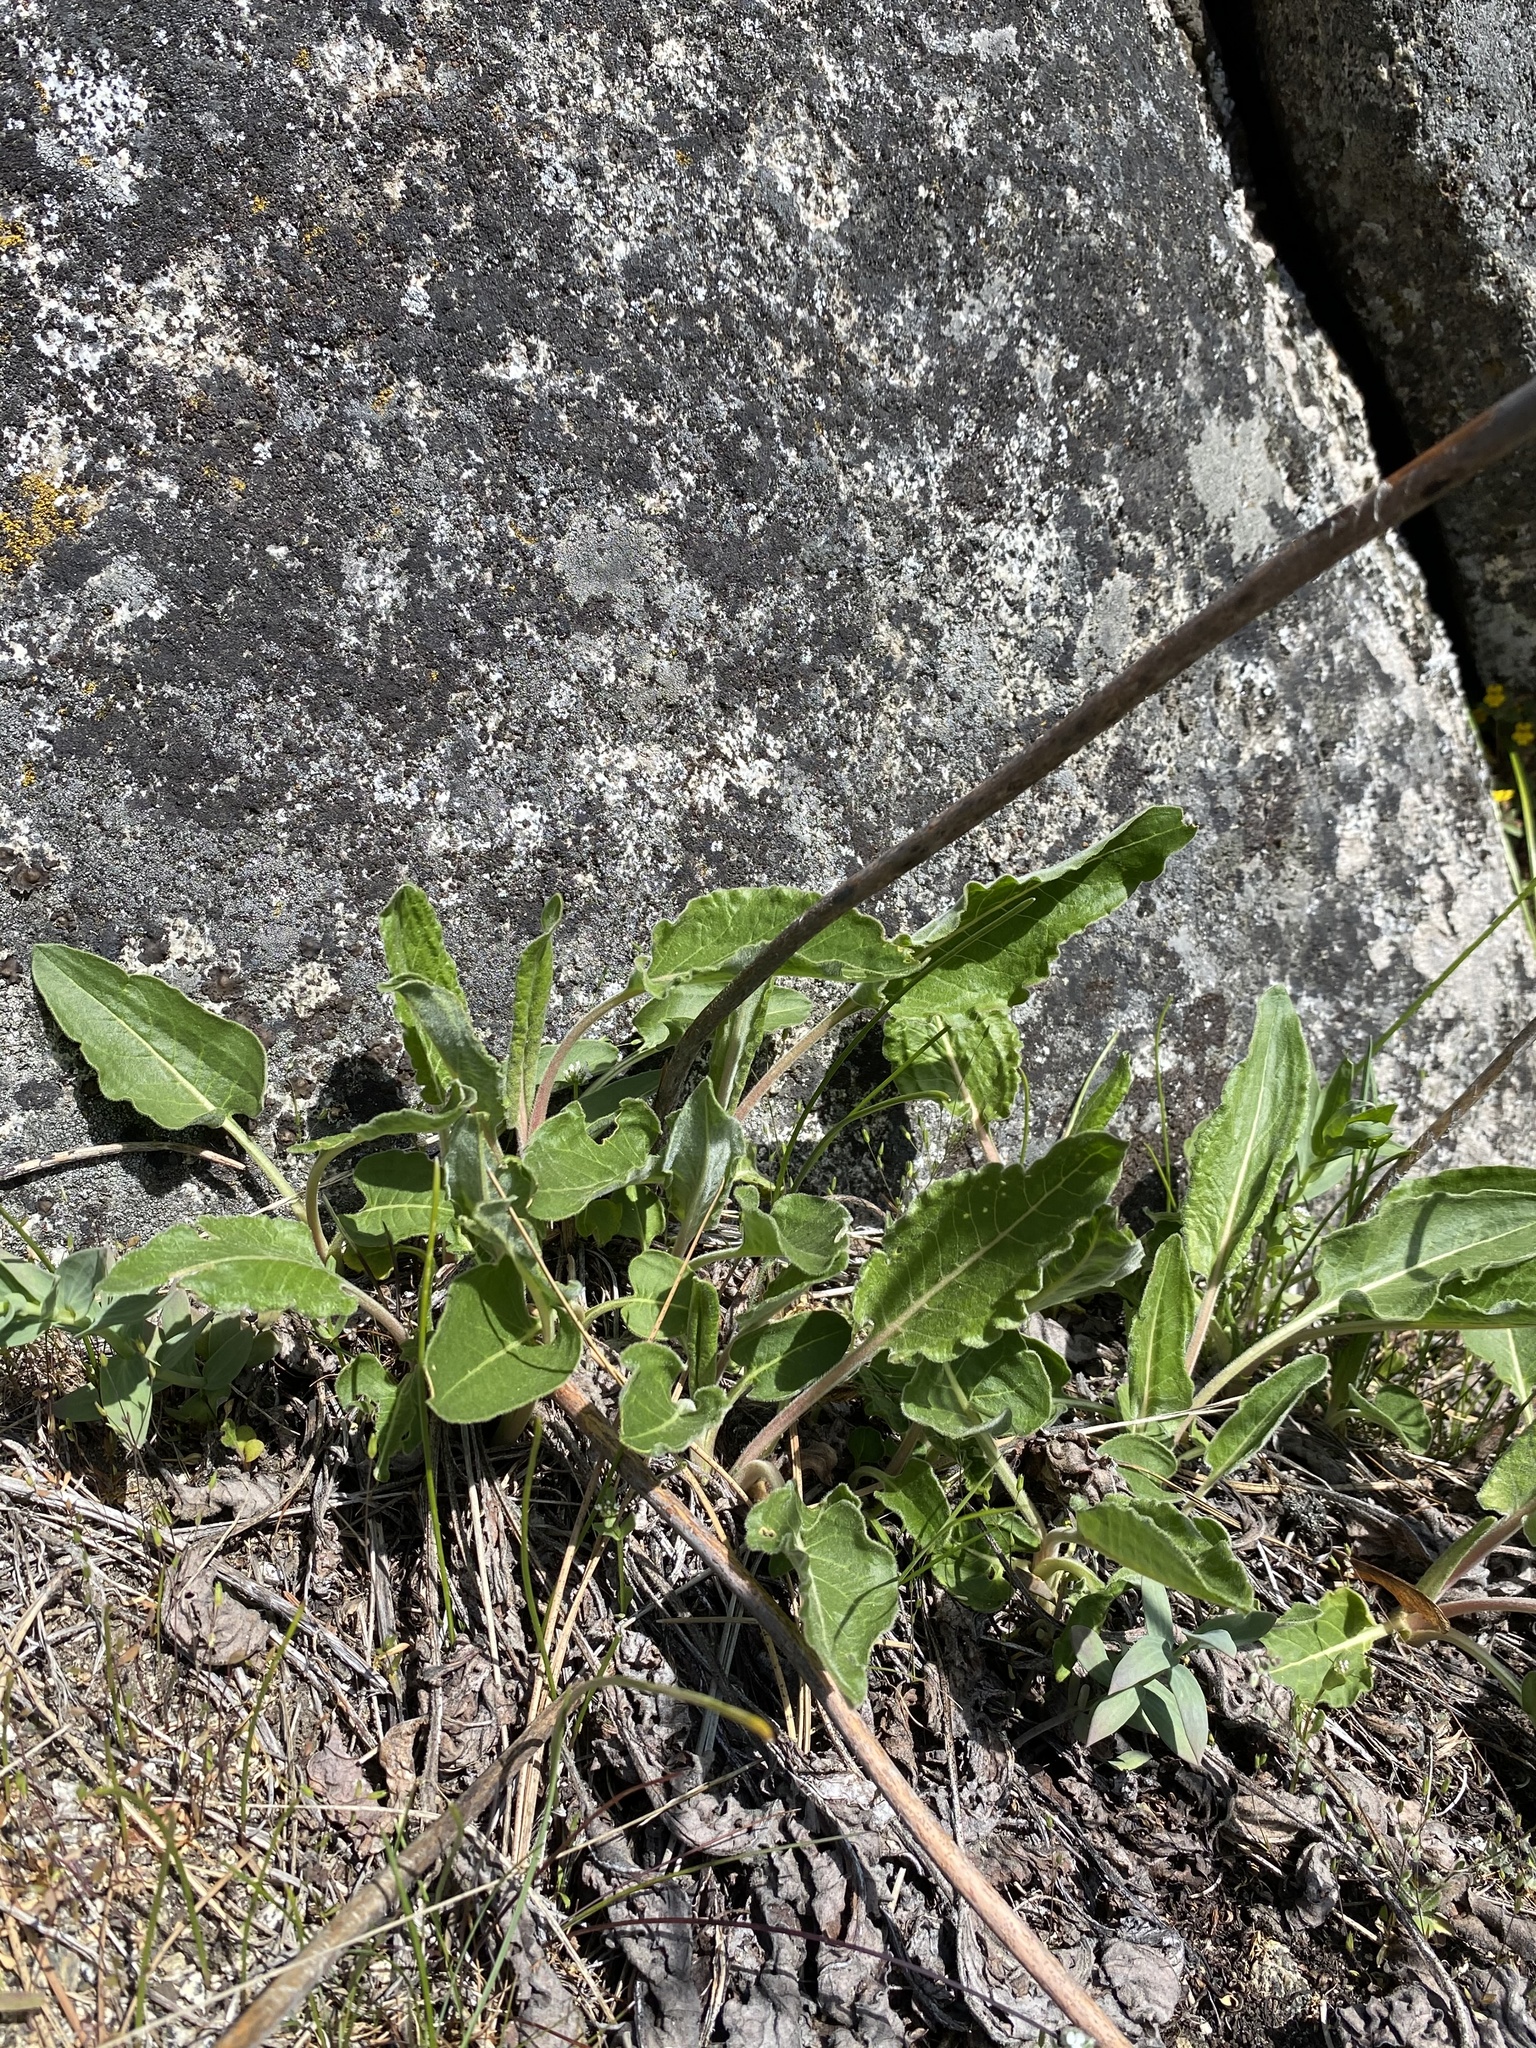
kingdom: Plantae
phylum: Tracheophyta
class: Magnoliopsida
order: Caryophyllales
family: Polygonaceae
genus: Eriogonum
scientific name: Eriogonum elatum
